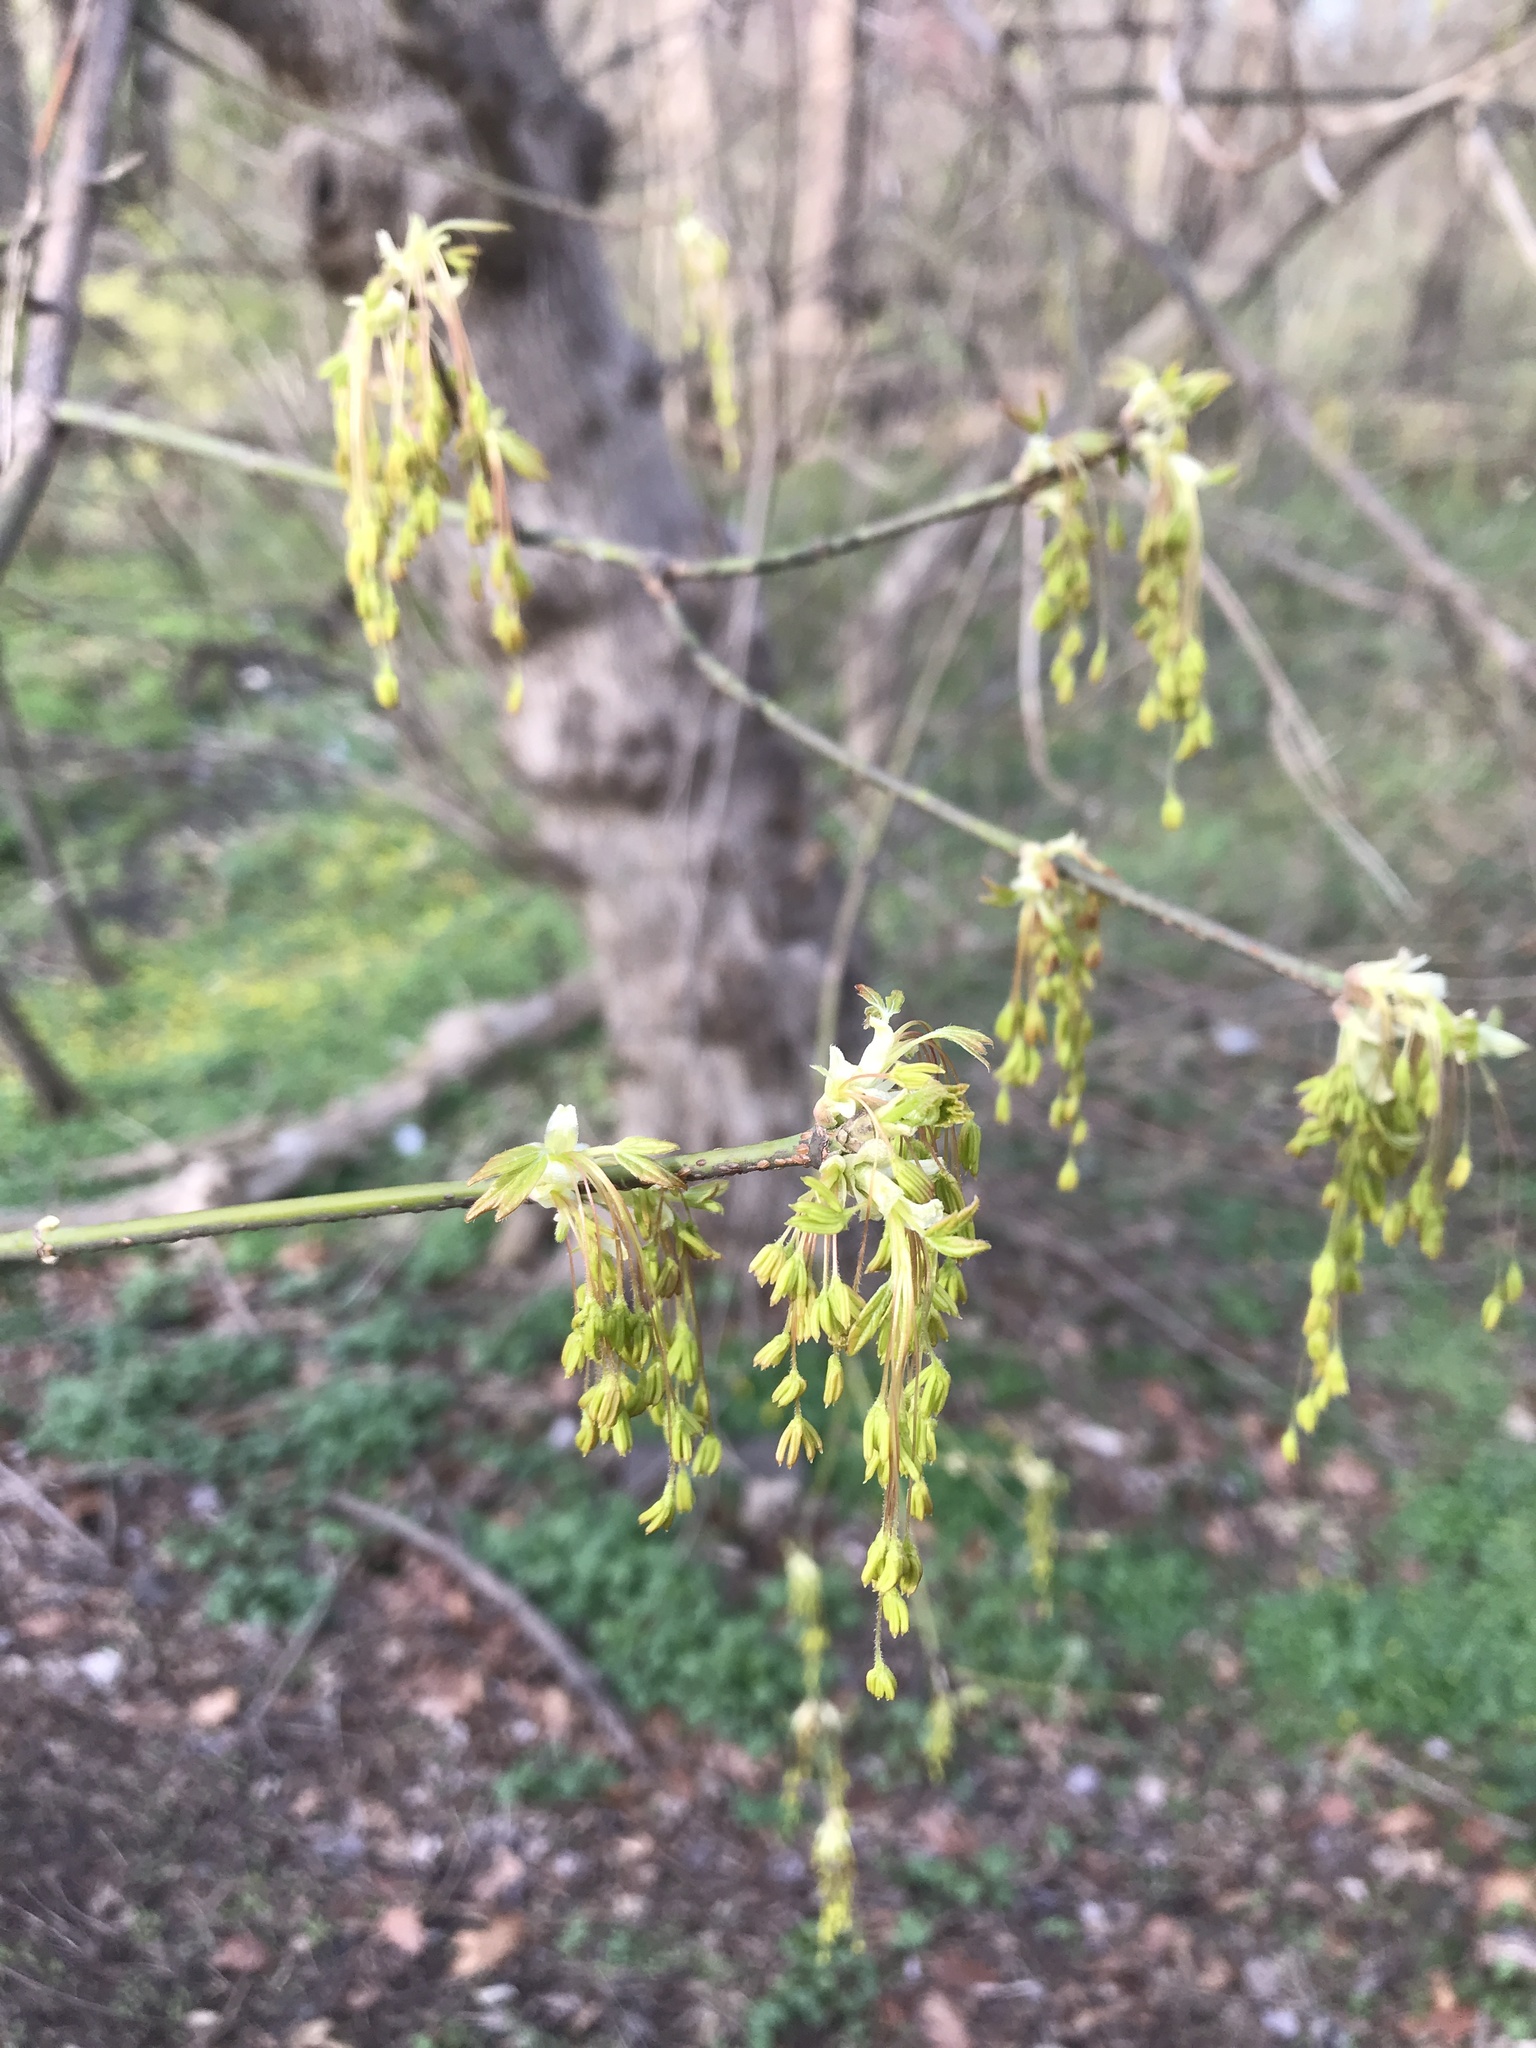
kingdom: Plantae
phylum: Tracheophyta
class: Magnoliopsida
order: Sapindales
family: Sapindaceae
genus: Acer
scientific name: Acer negundo
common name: Ashleaf maple
